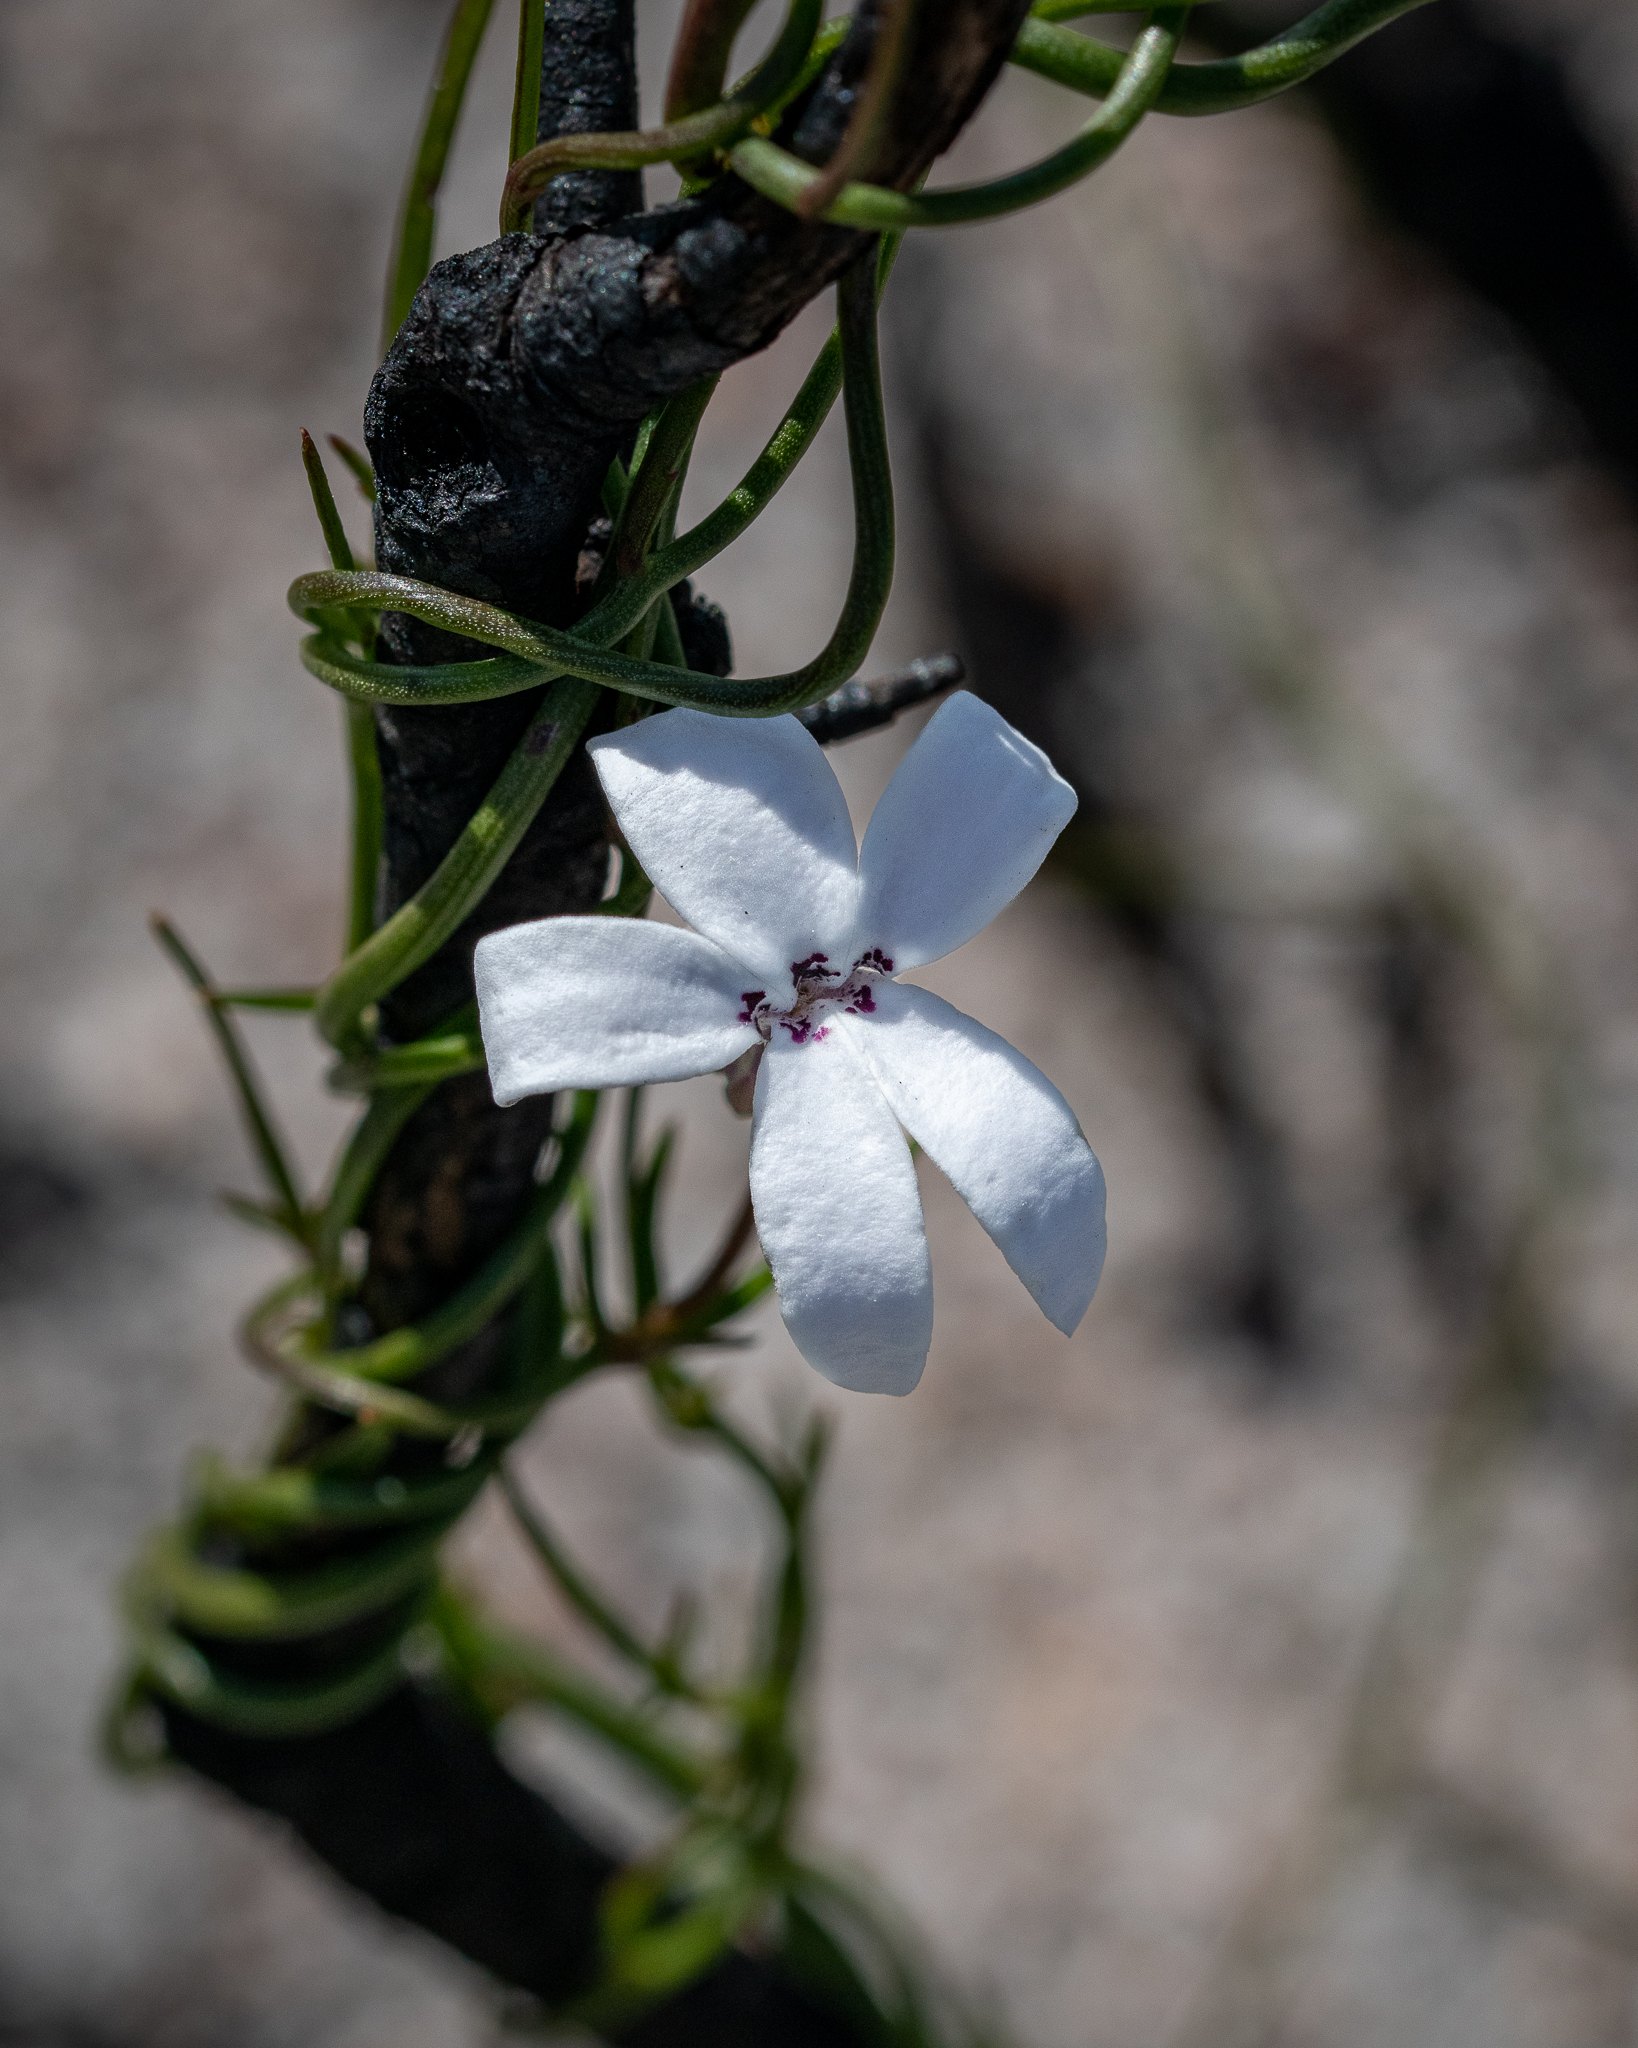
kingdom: Plantae
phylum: Tracheophyta
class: Magnoliopsida
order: Asterales
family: Campanulaceae
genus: Cyphia
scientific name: Cyphia volubilis
